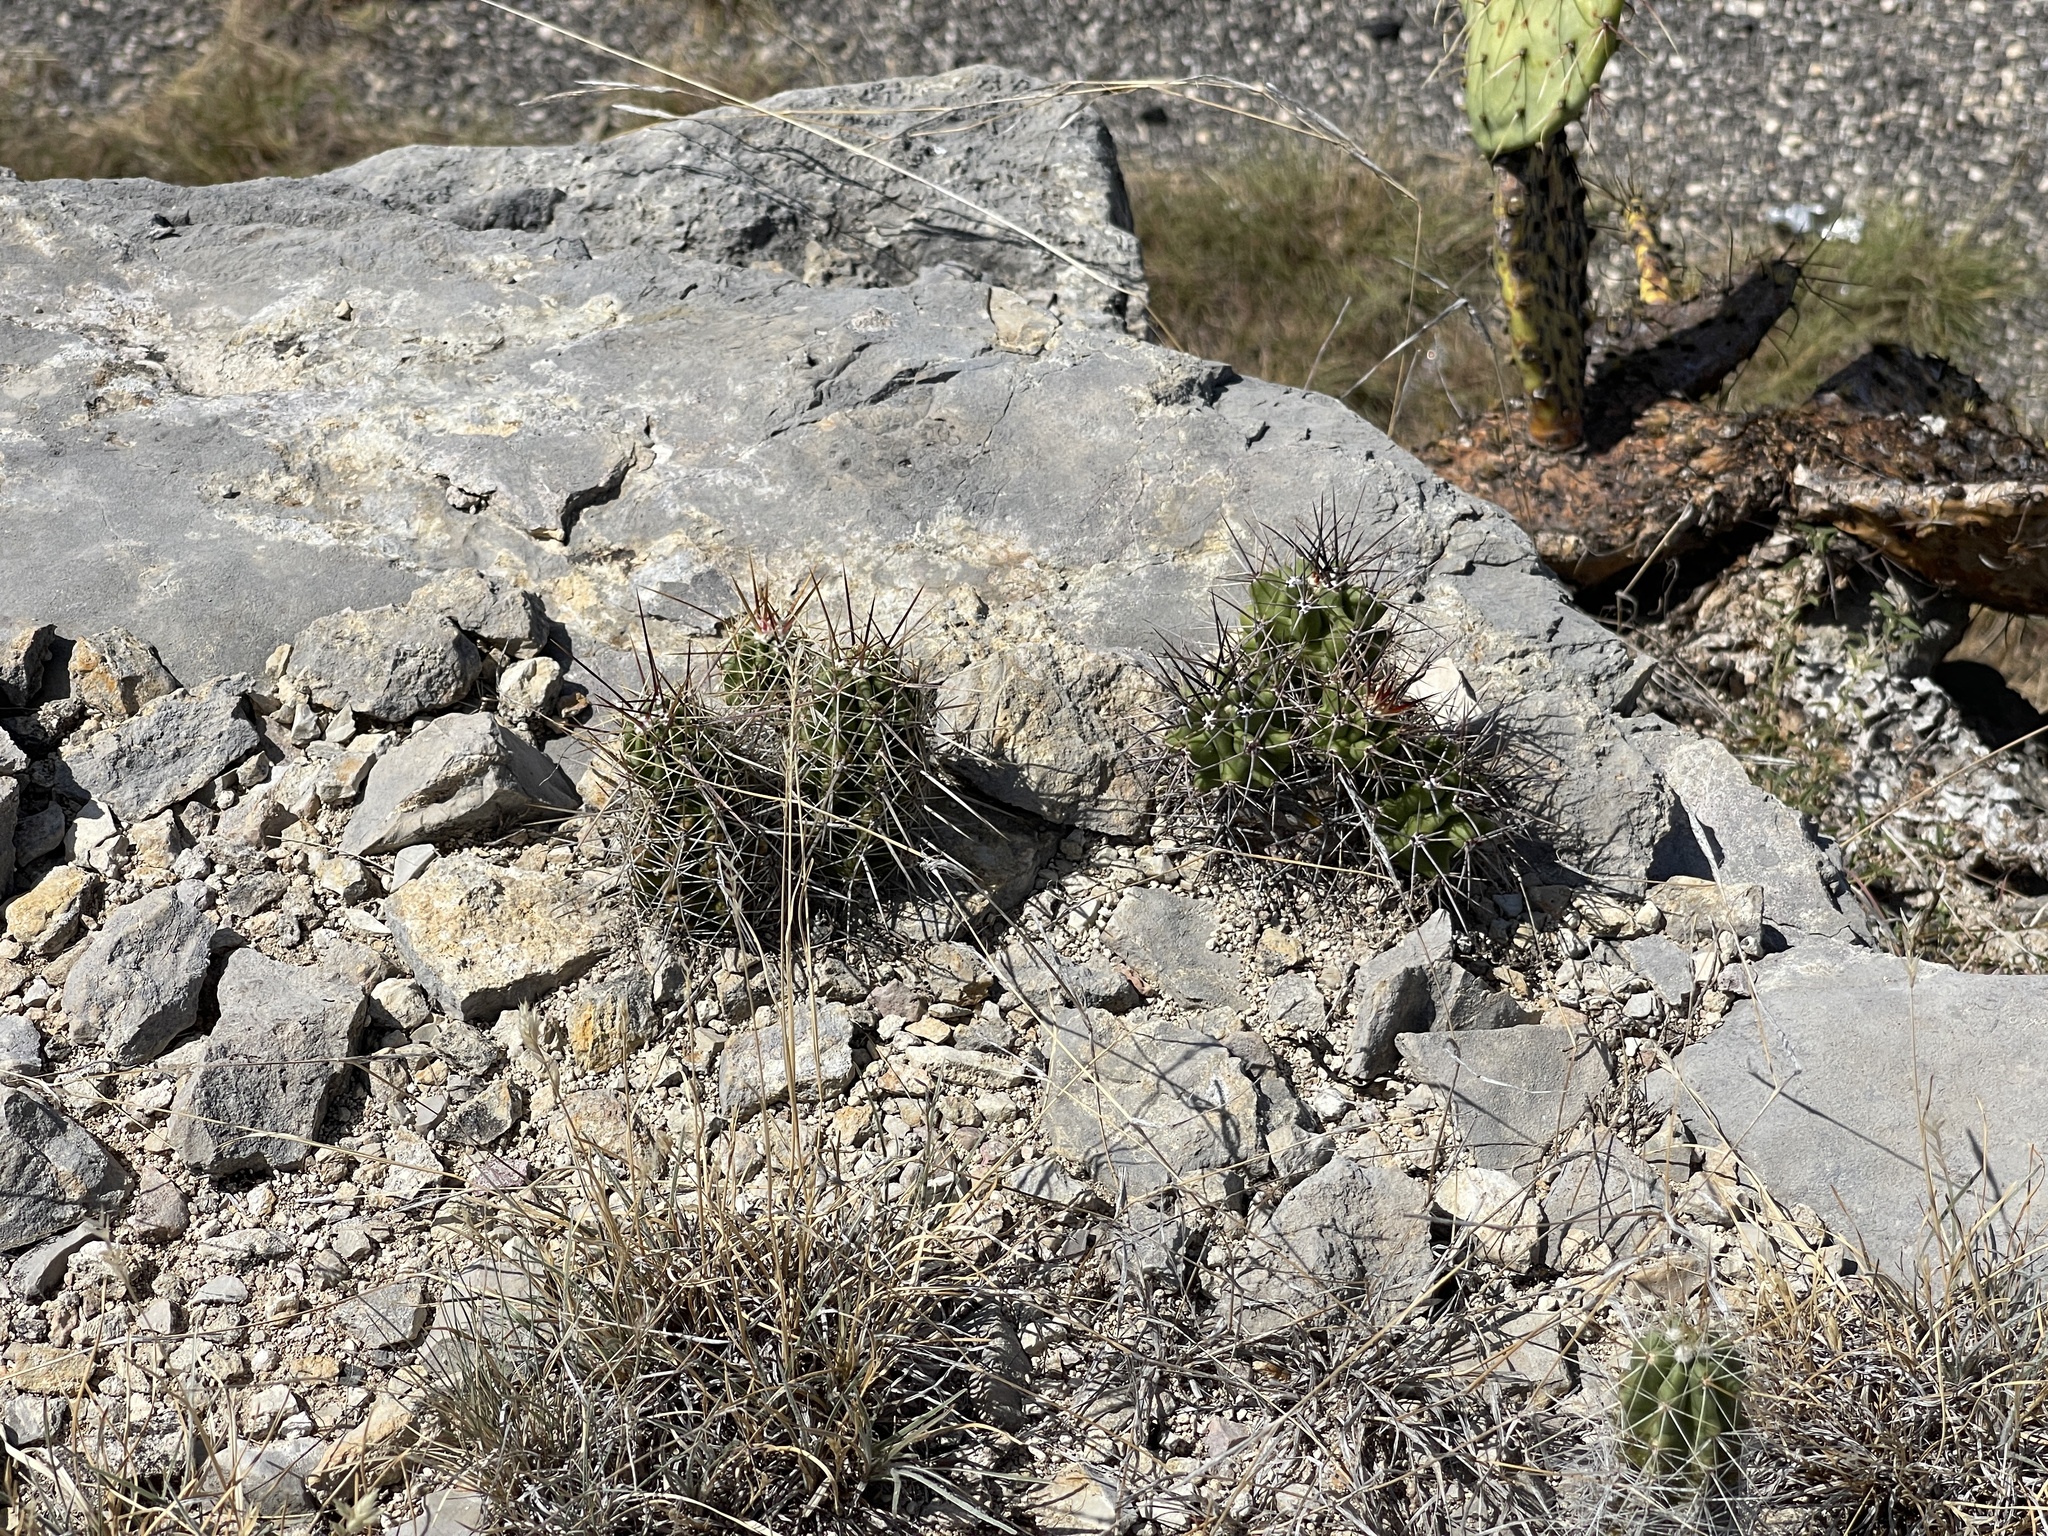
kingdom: Plantae
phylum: Tracheophyta
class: Magnoliopsida
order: Caryophyllales
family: Cactaceae
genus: Echinocereus
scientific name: Echinocereus enneacanthus
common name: Pitaya
